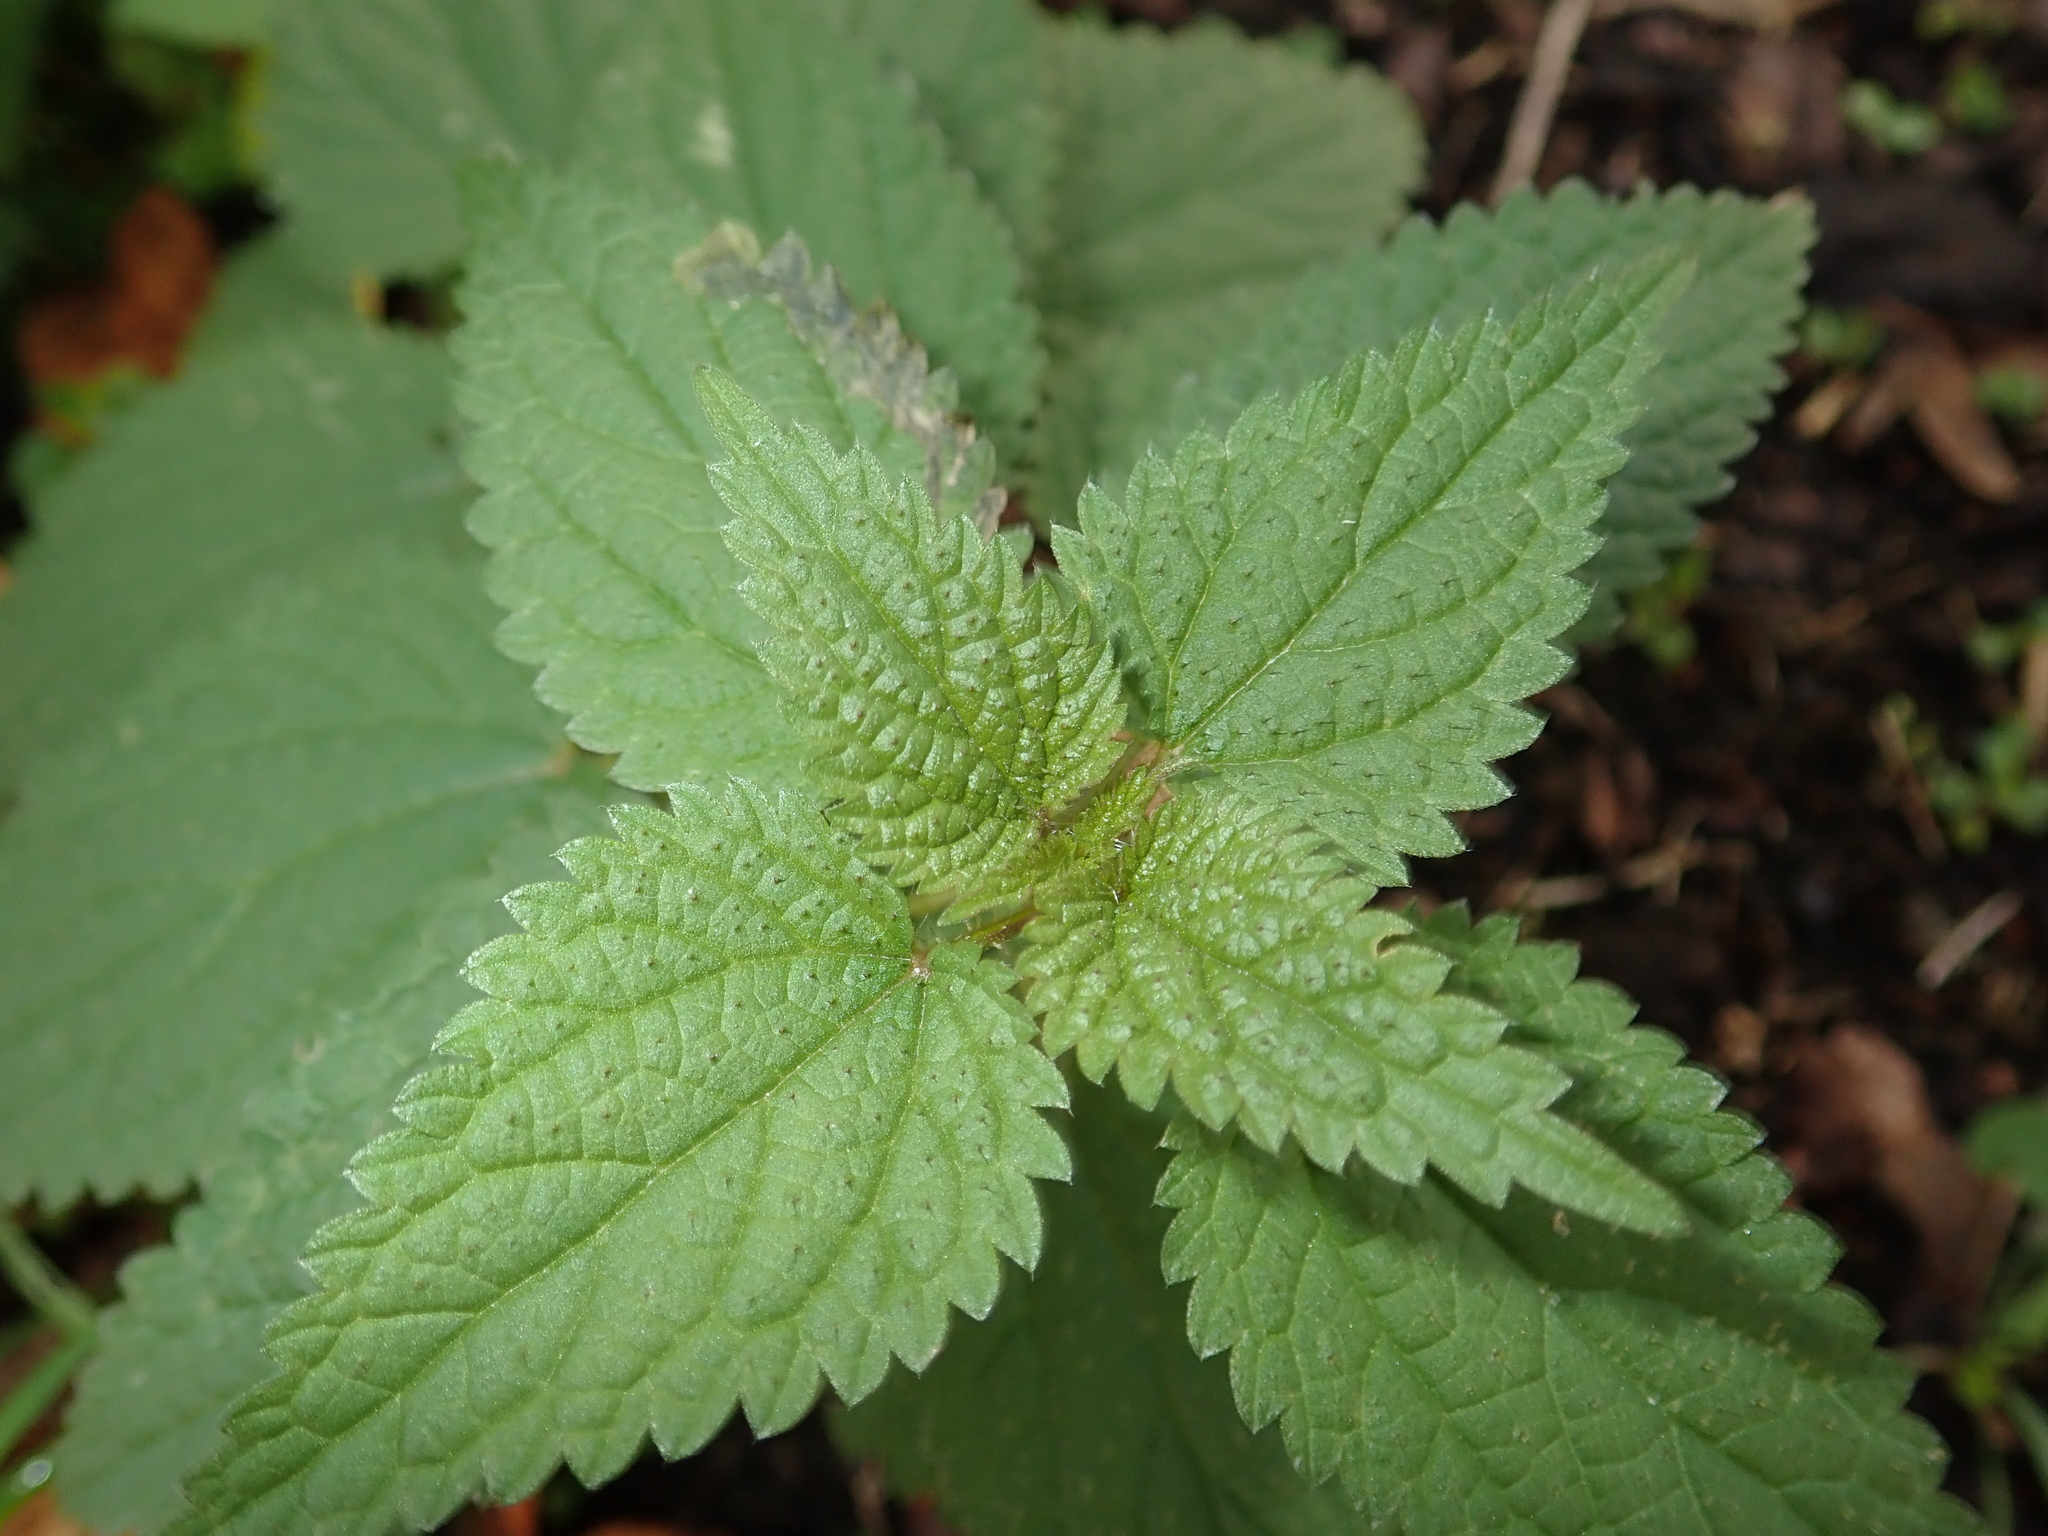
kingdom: Plantae
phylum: Tracheophyta
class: Magnoliopsida
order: Rosales
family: Urticaceae
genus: Urtica
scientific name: Urtica dioica
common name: Common nettle
